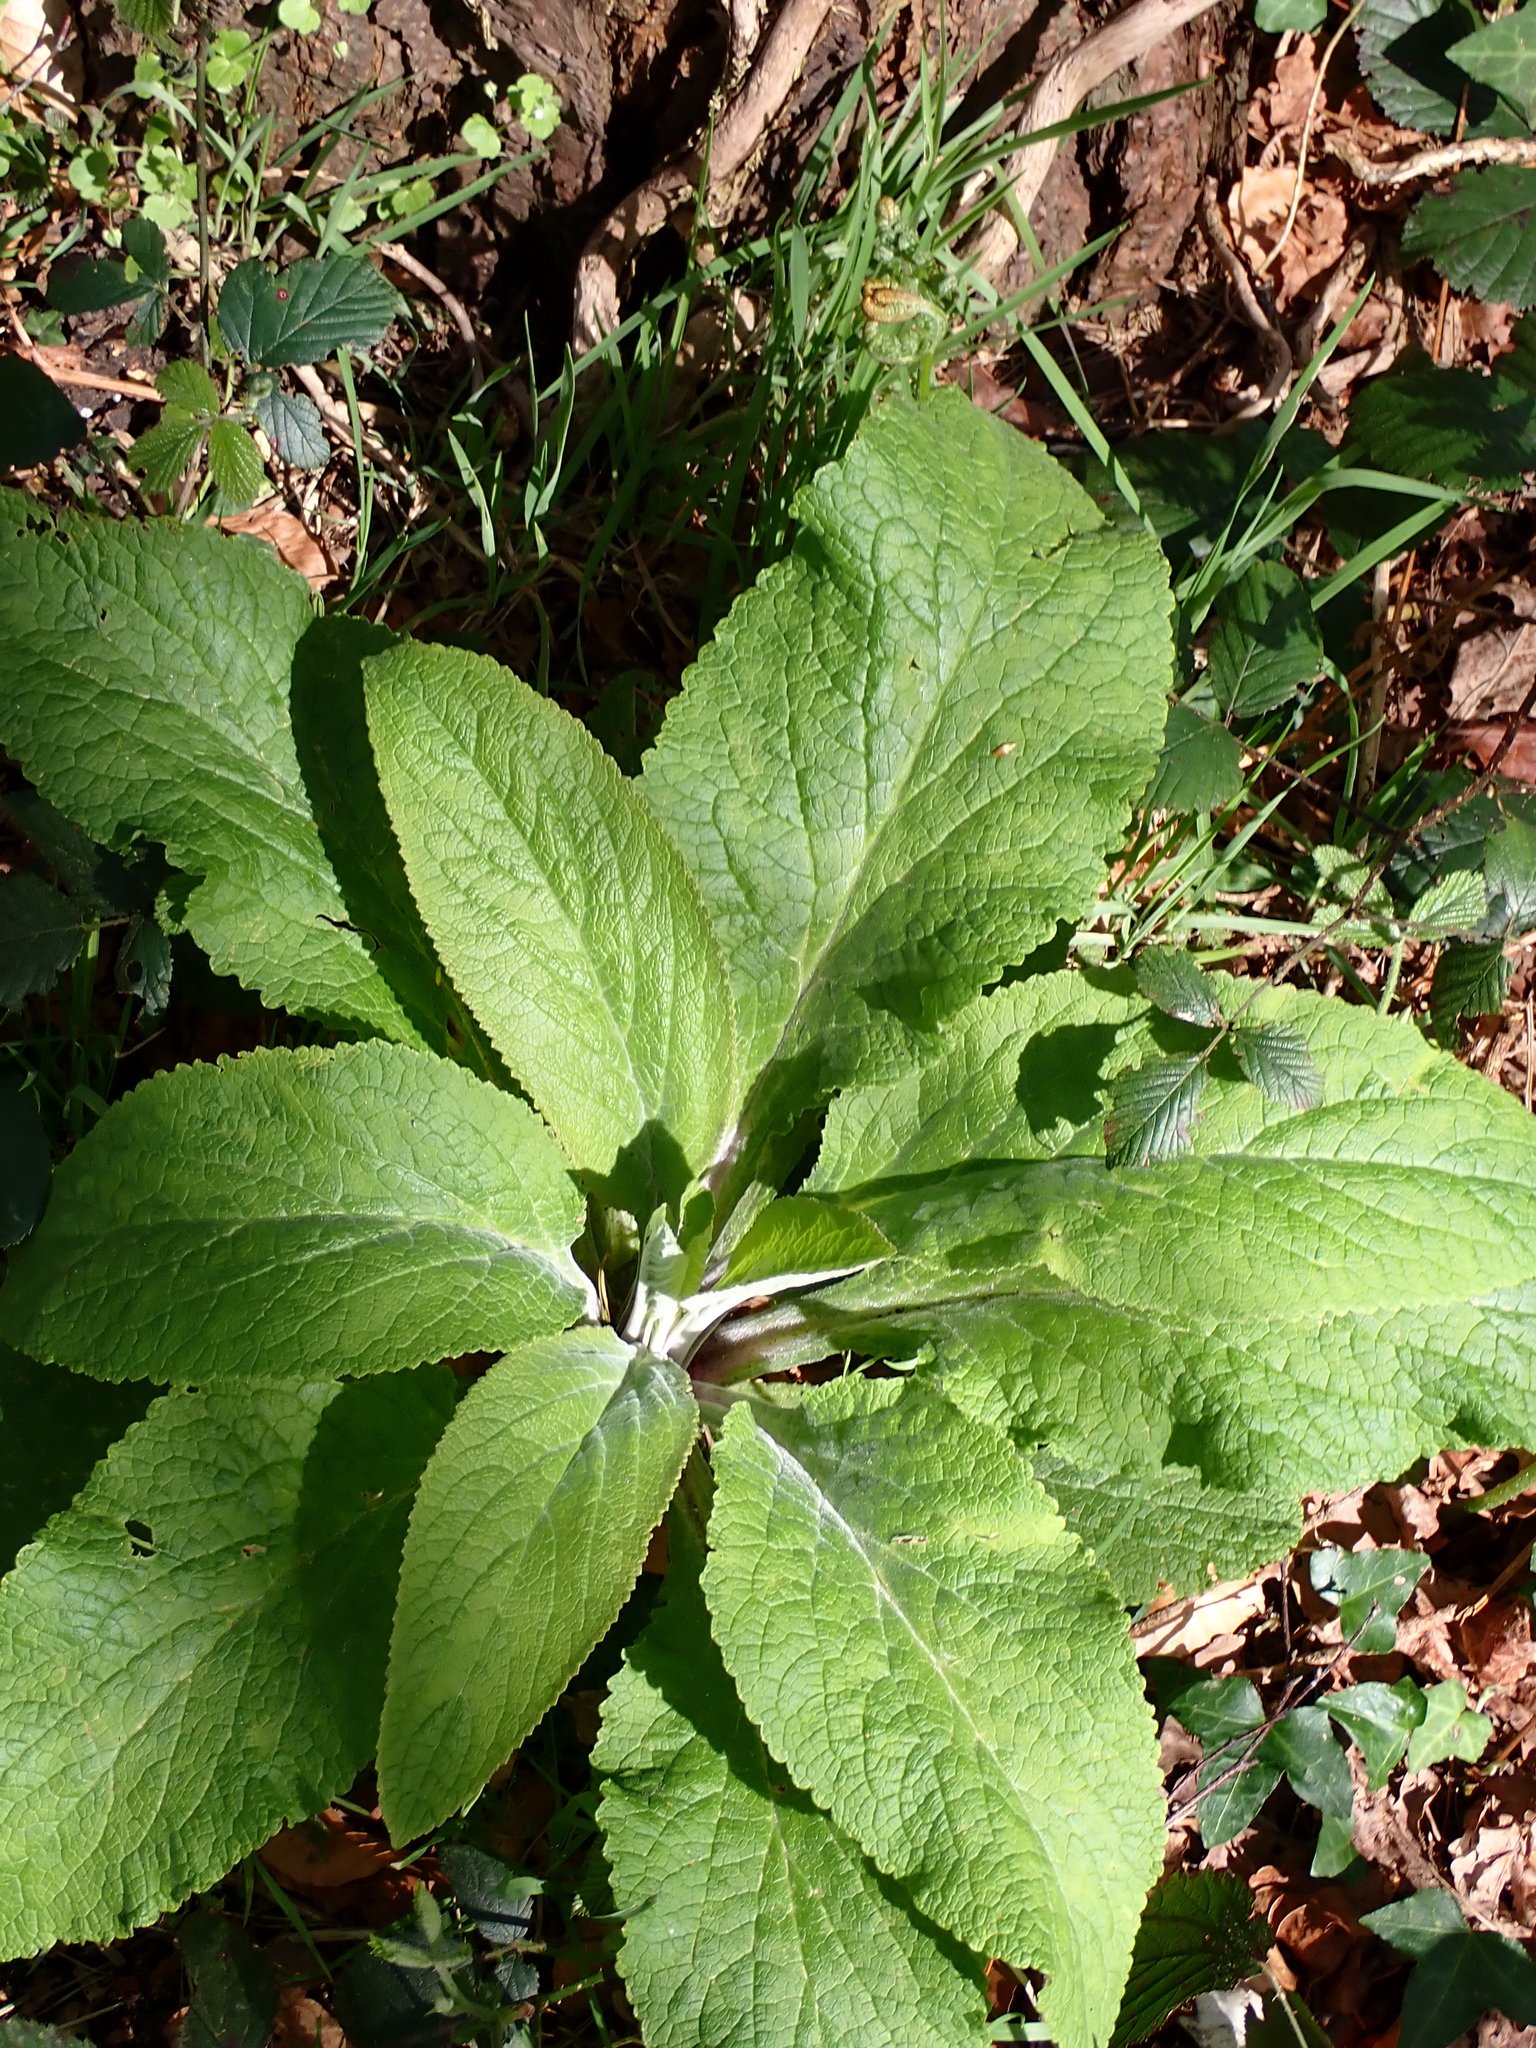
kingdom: Plantae
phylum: Tracheophyta
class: Magnoliopsida
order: Lamiales
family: Plantaginaceae
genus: Digitalis
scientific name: Digitalis purpurea
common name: Foxglove
